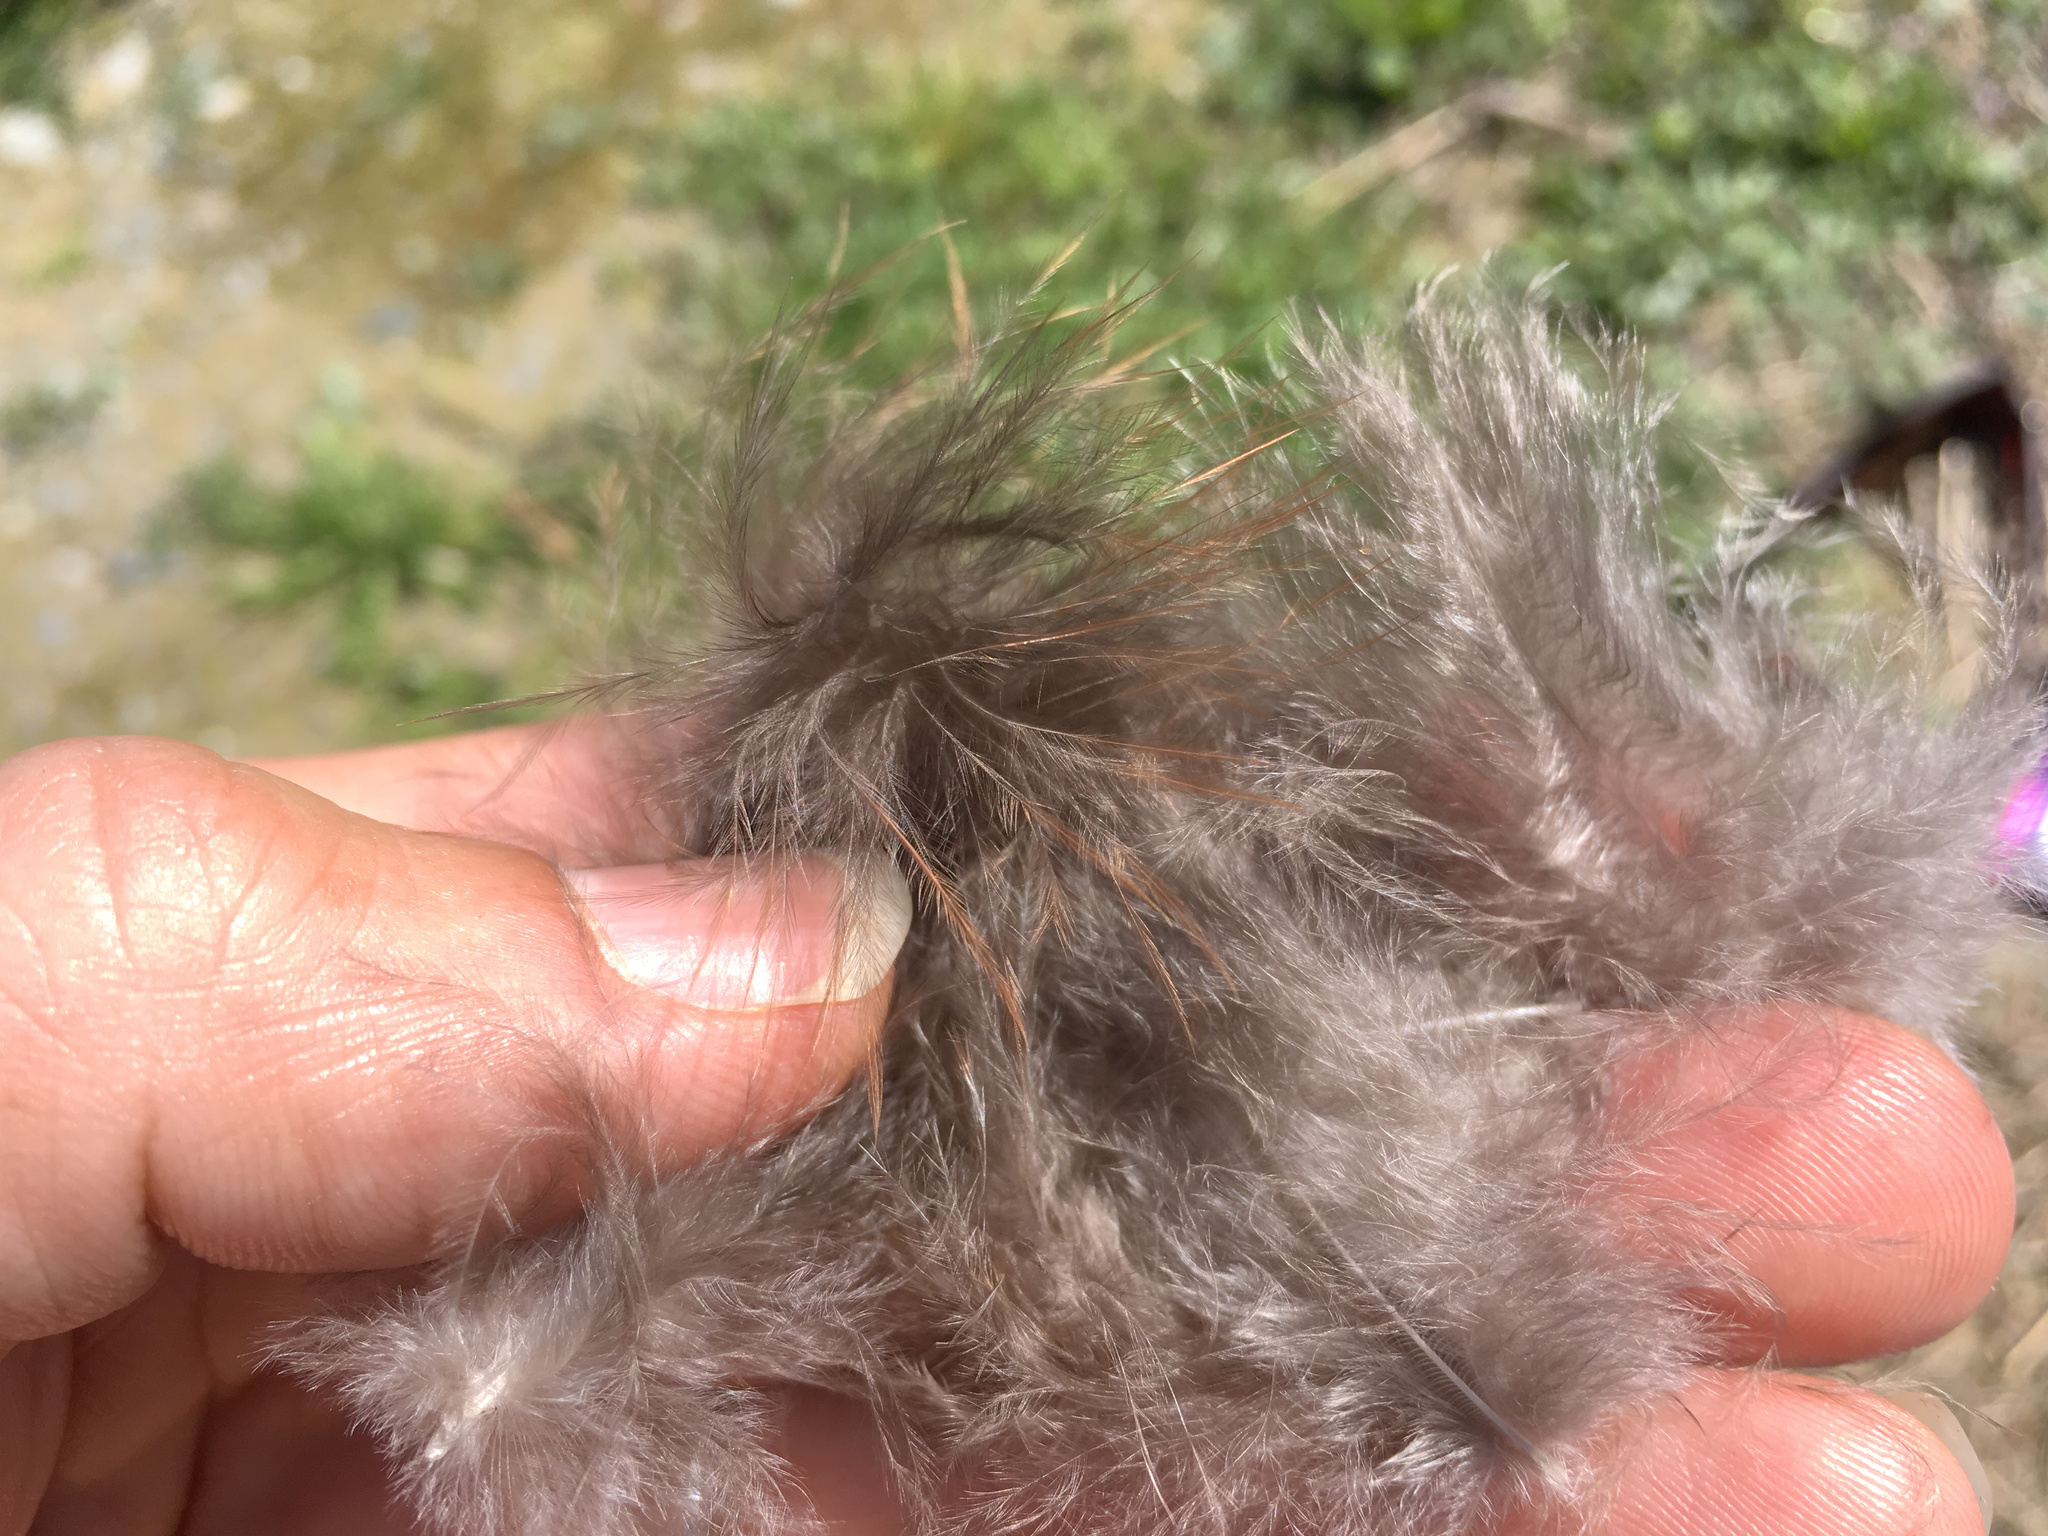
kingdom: Animalia
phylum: Chordata
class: Aves
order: Galliformes
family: Phasianidae
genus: Phasianus
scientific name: Phasianus colchicus
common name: Common pheasant
